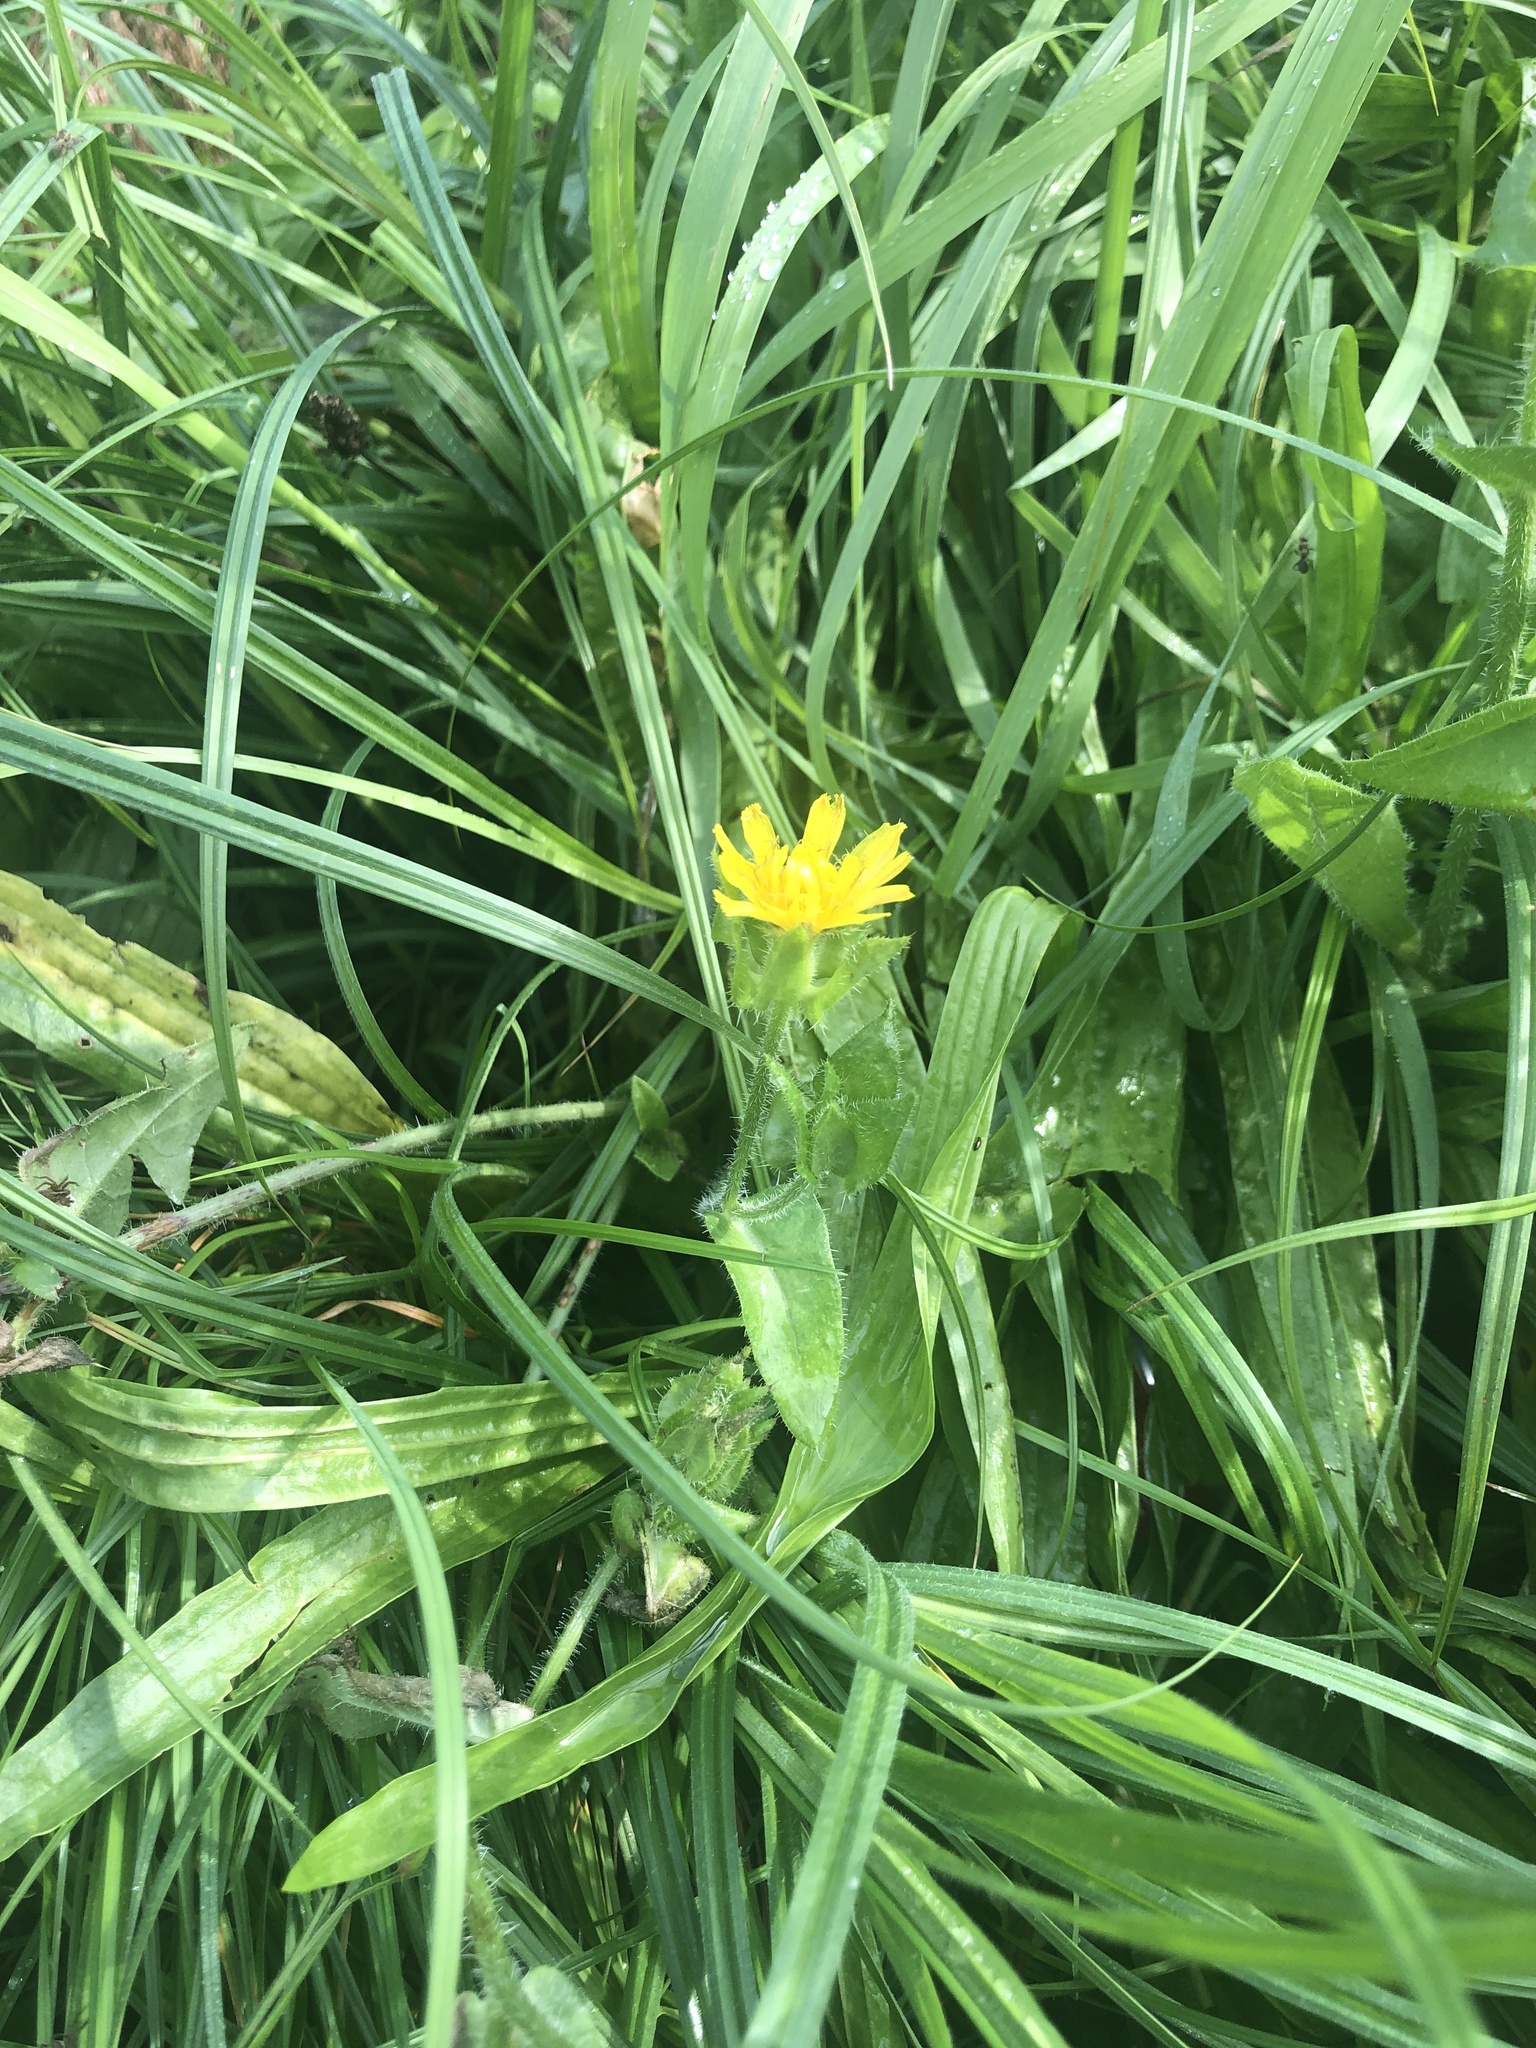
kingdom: Plantae
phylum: Tracheophyta
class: Magnoliopsida
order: Asterales
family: Asteraceae
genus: Helminthotheca
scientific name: Helminthotheca echioides
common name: Ox-tongue
